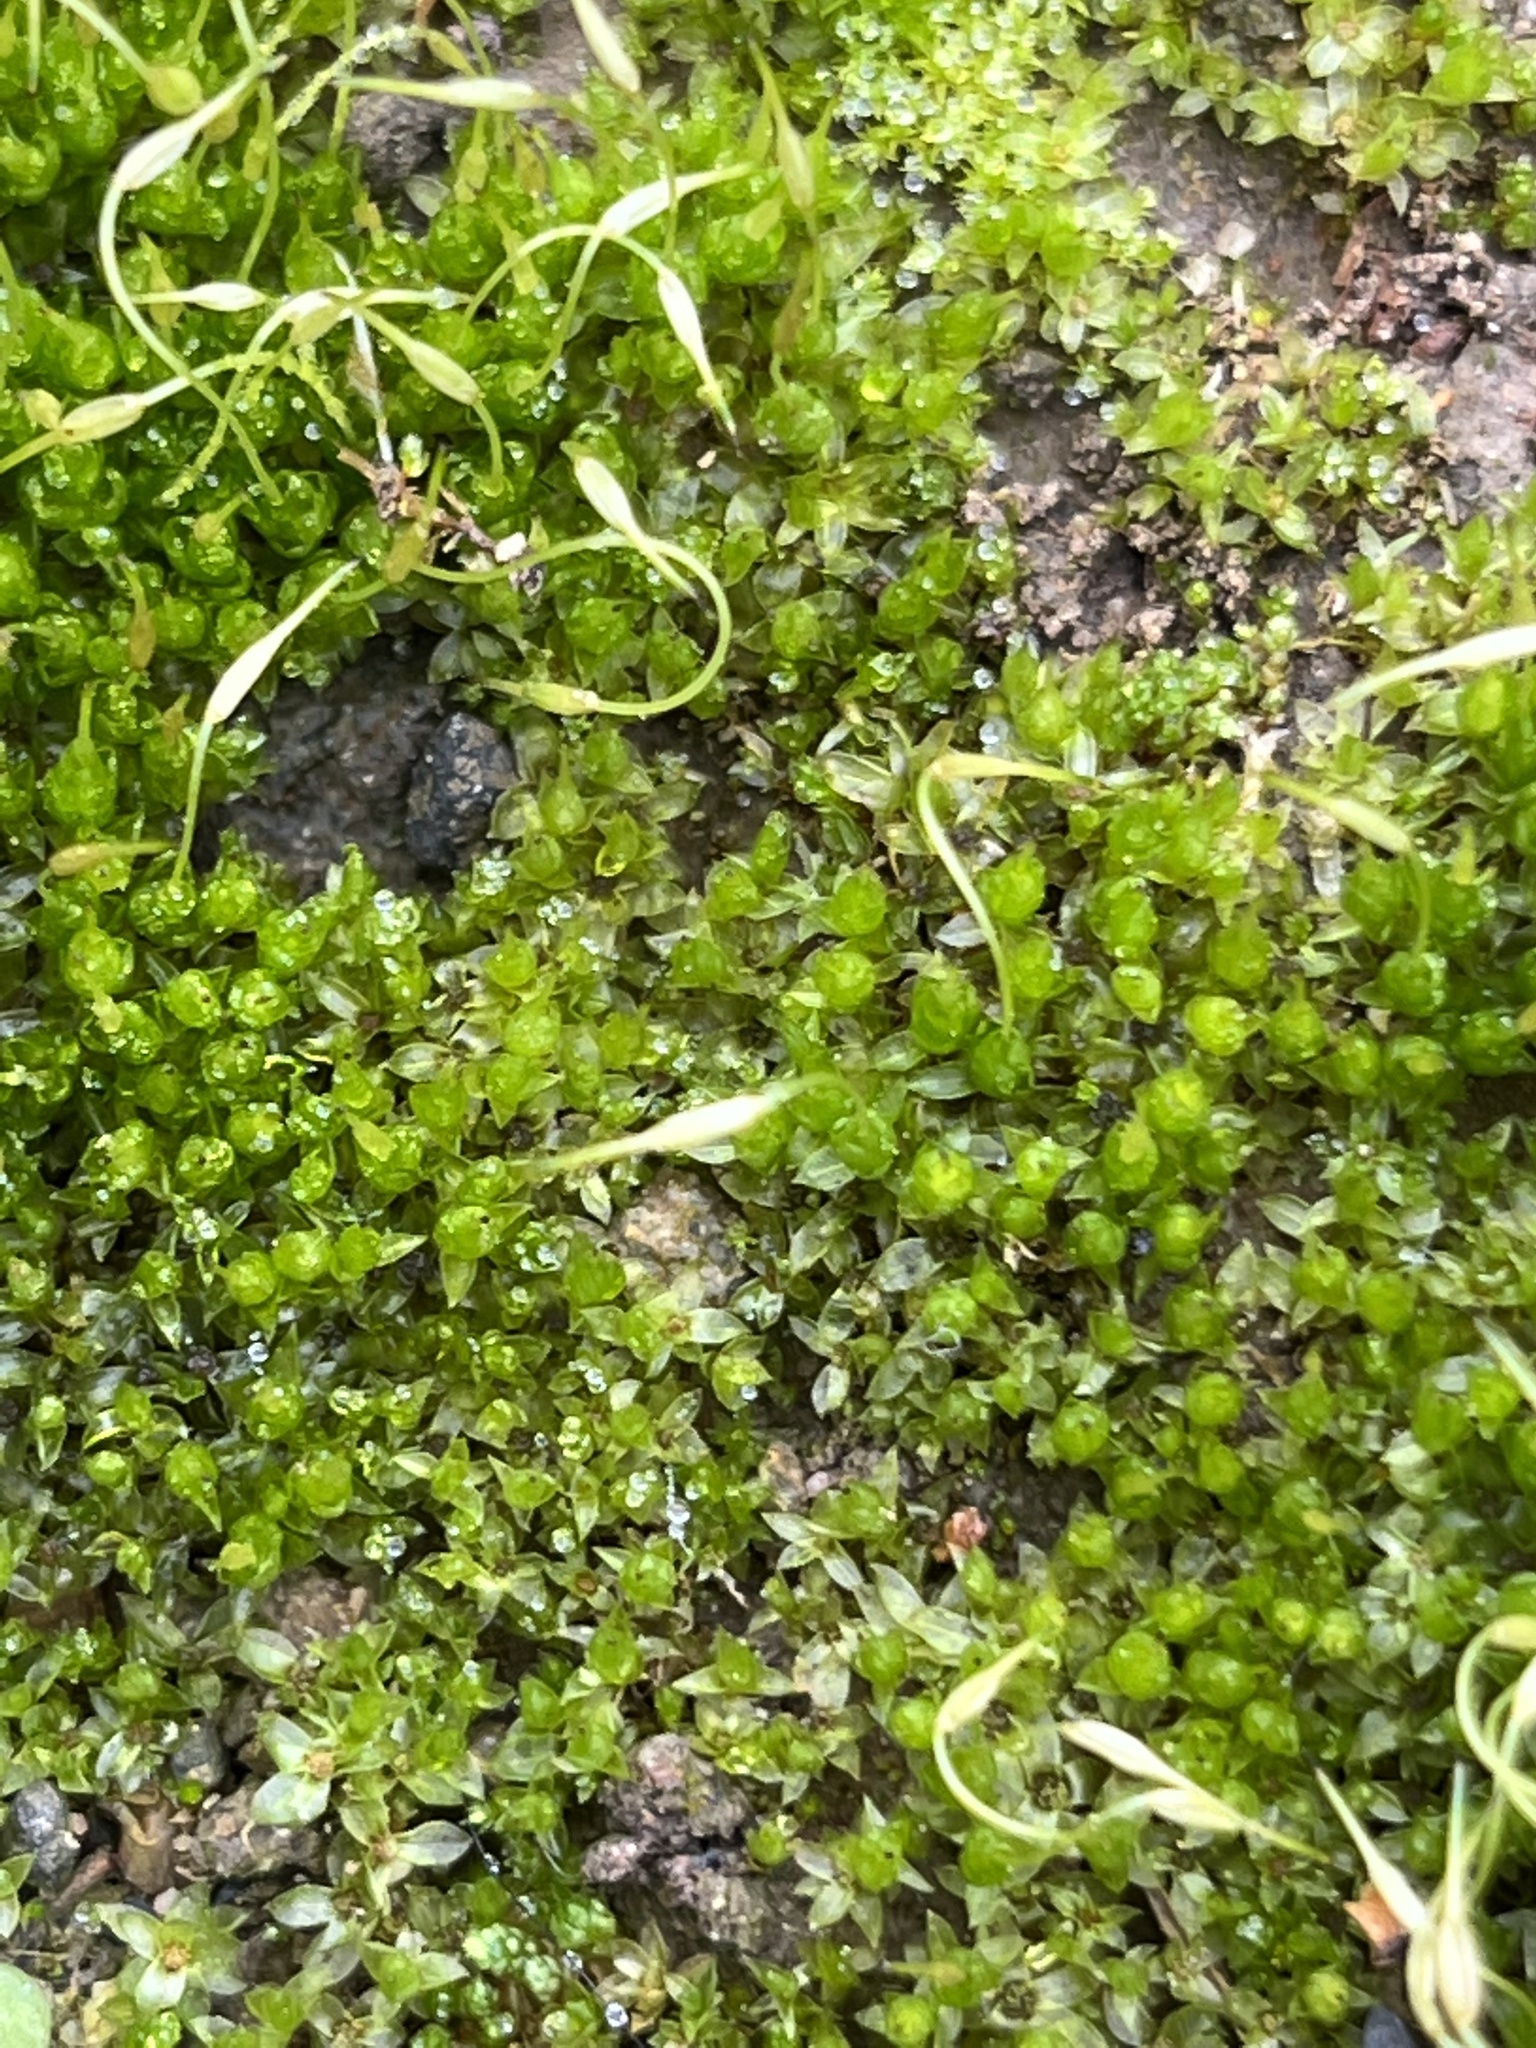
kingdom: Plantae
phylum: Bryophyta
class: Bryopsida
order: Funariales
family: Funariaceae
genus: Funaria
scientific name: Funaria hygrometrica
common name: Common cord moss
